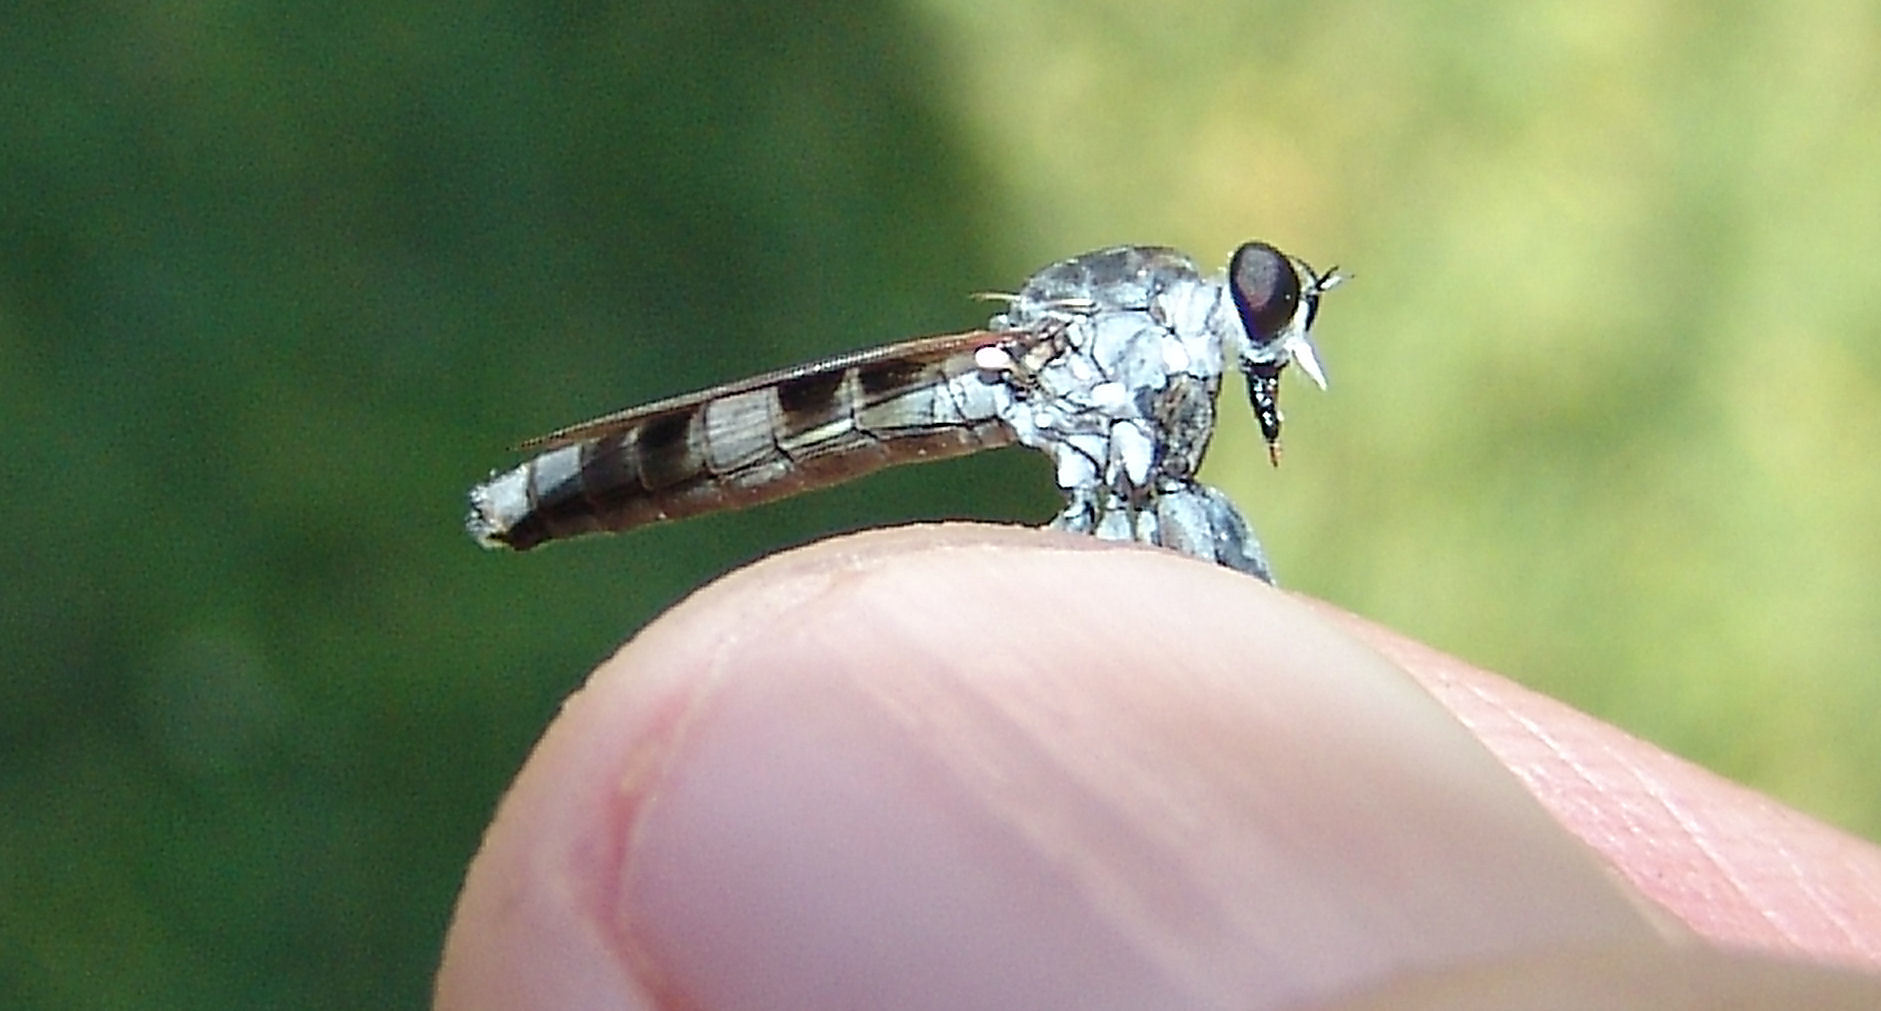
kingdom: Animalia
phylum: Arthropoda
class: Insecta
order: Diptera
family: Asilidae
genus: Stichopogon
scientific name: Stichopogon trifasciatus
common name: Three-banded robber fly
